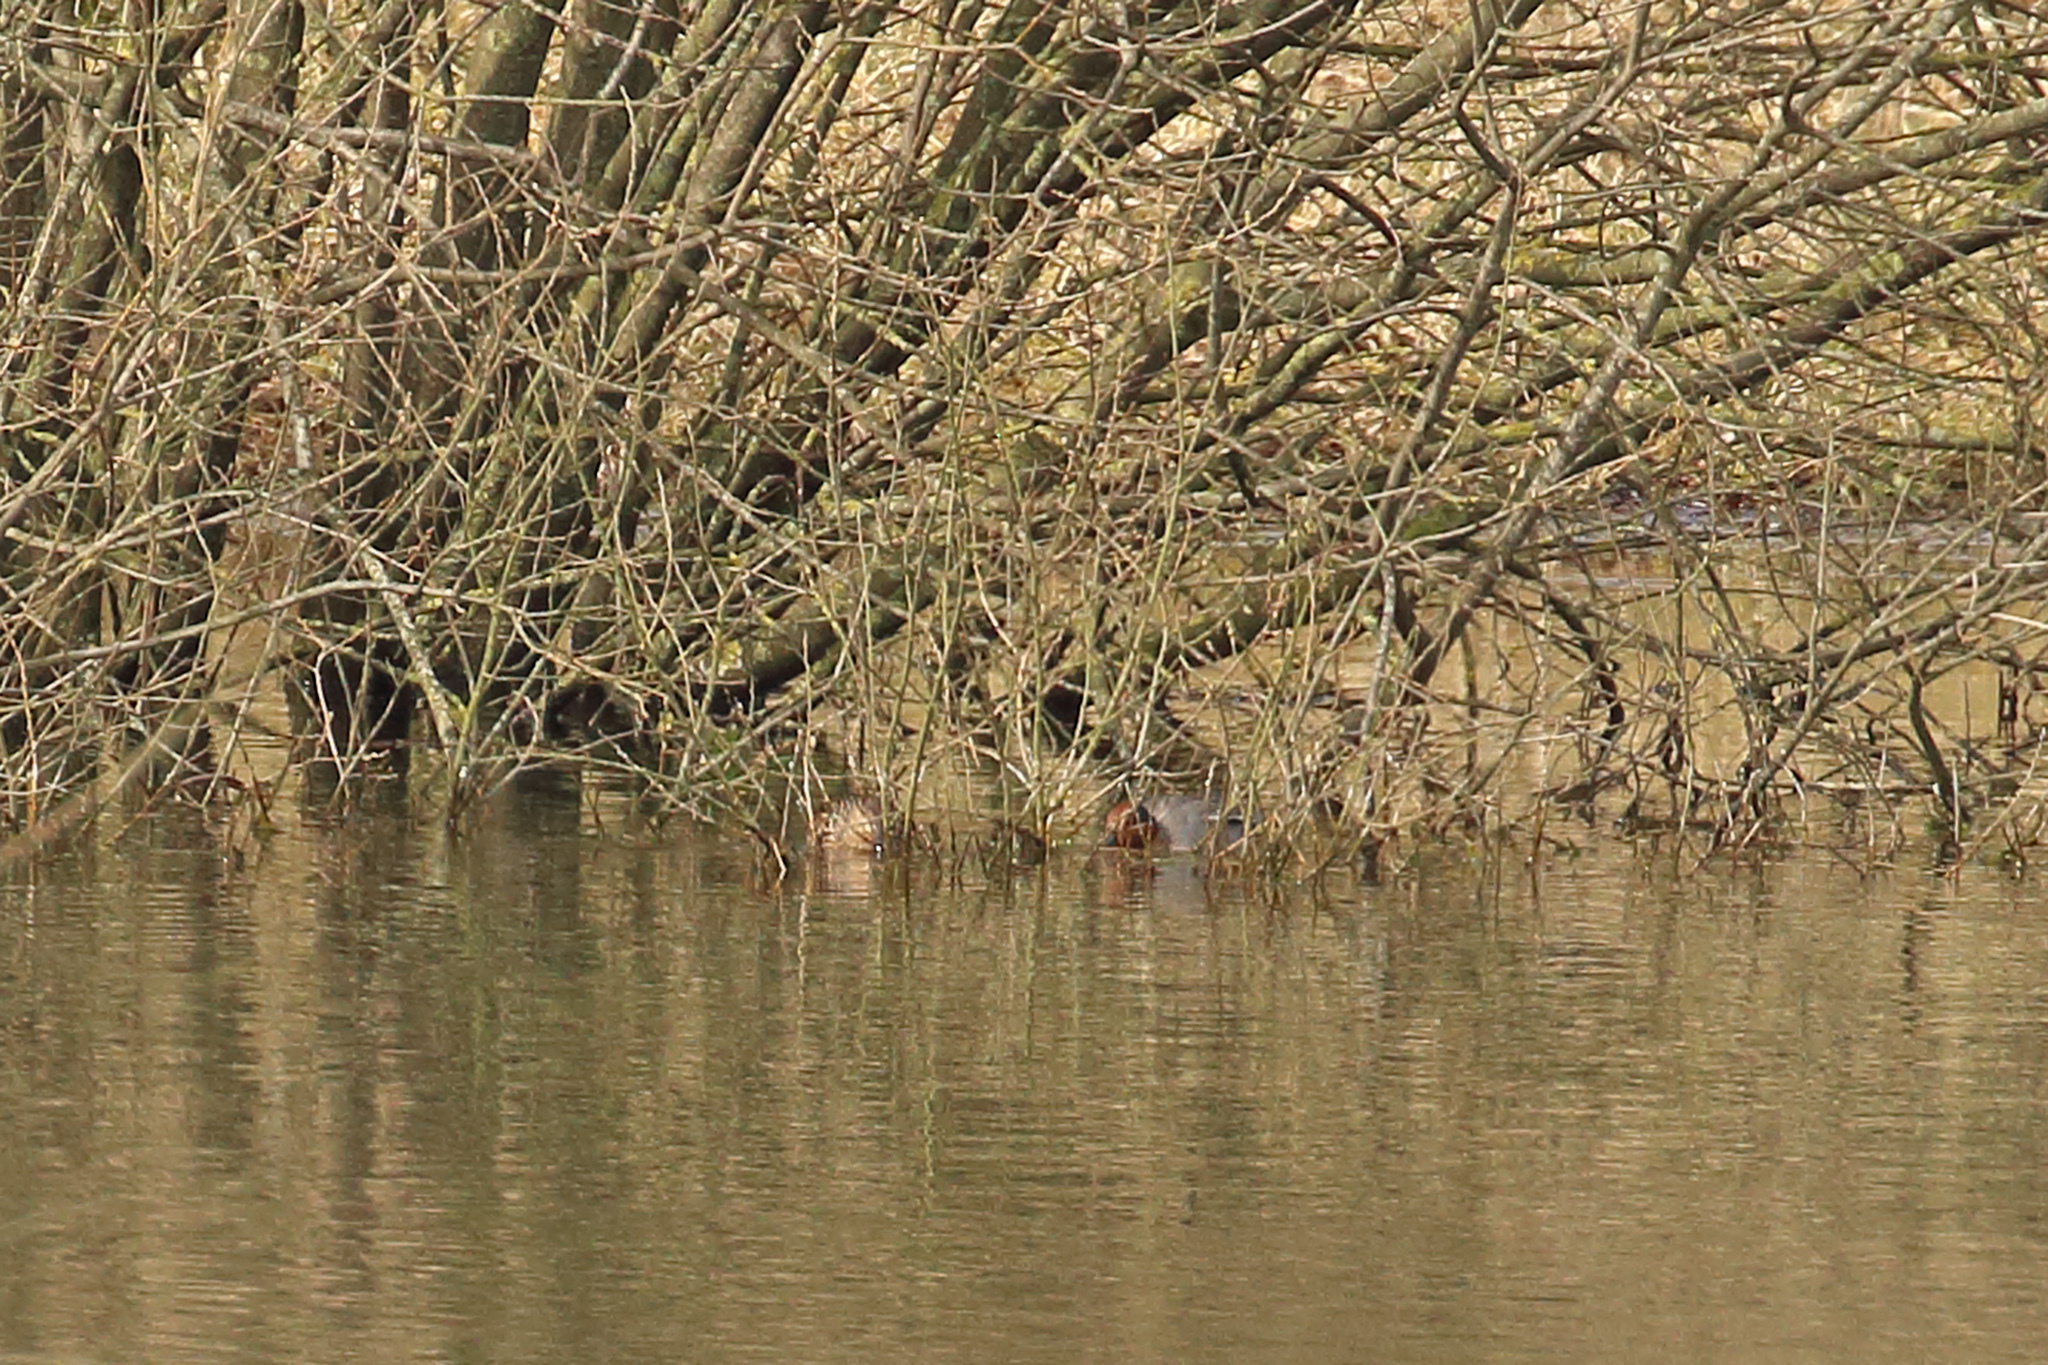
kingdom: Animalia
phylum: Chordata
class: Aves
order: Anseriformes
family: Anatidae
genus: Anas
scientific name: Anas crecca
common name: Eurasian teal
